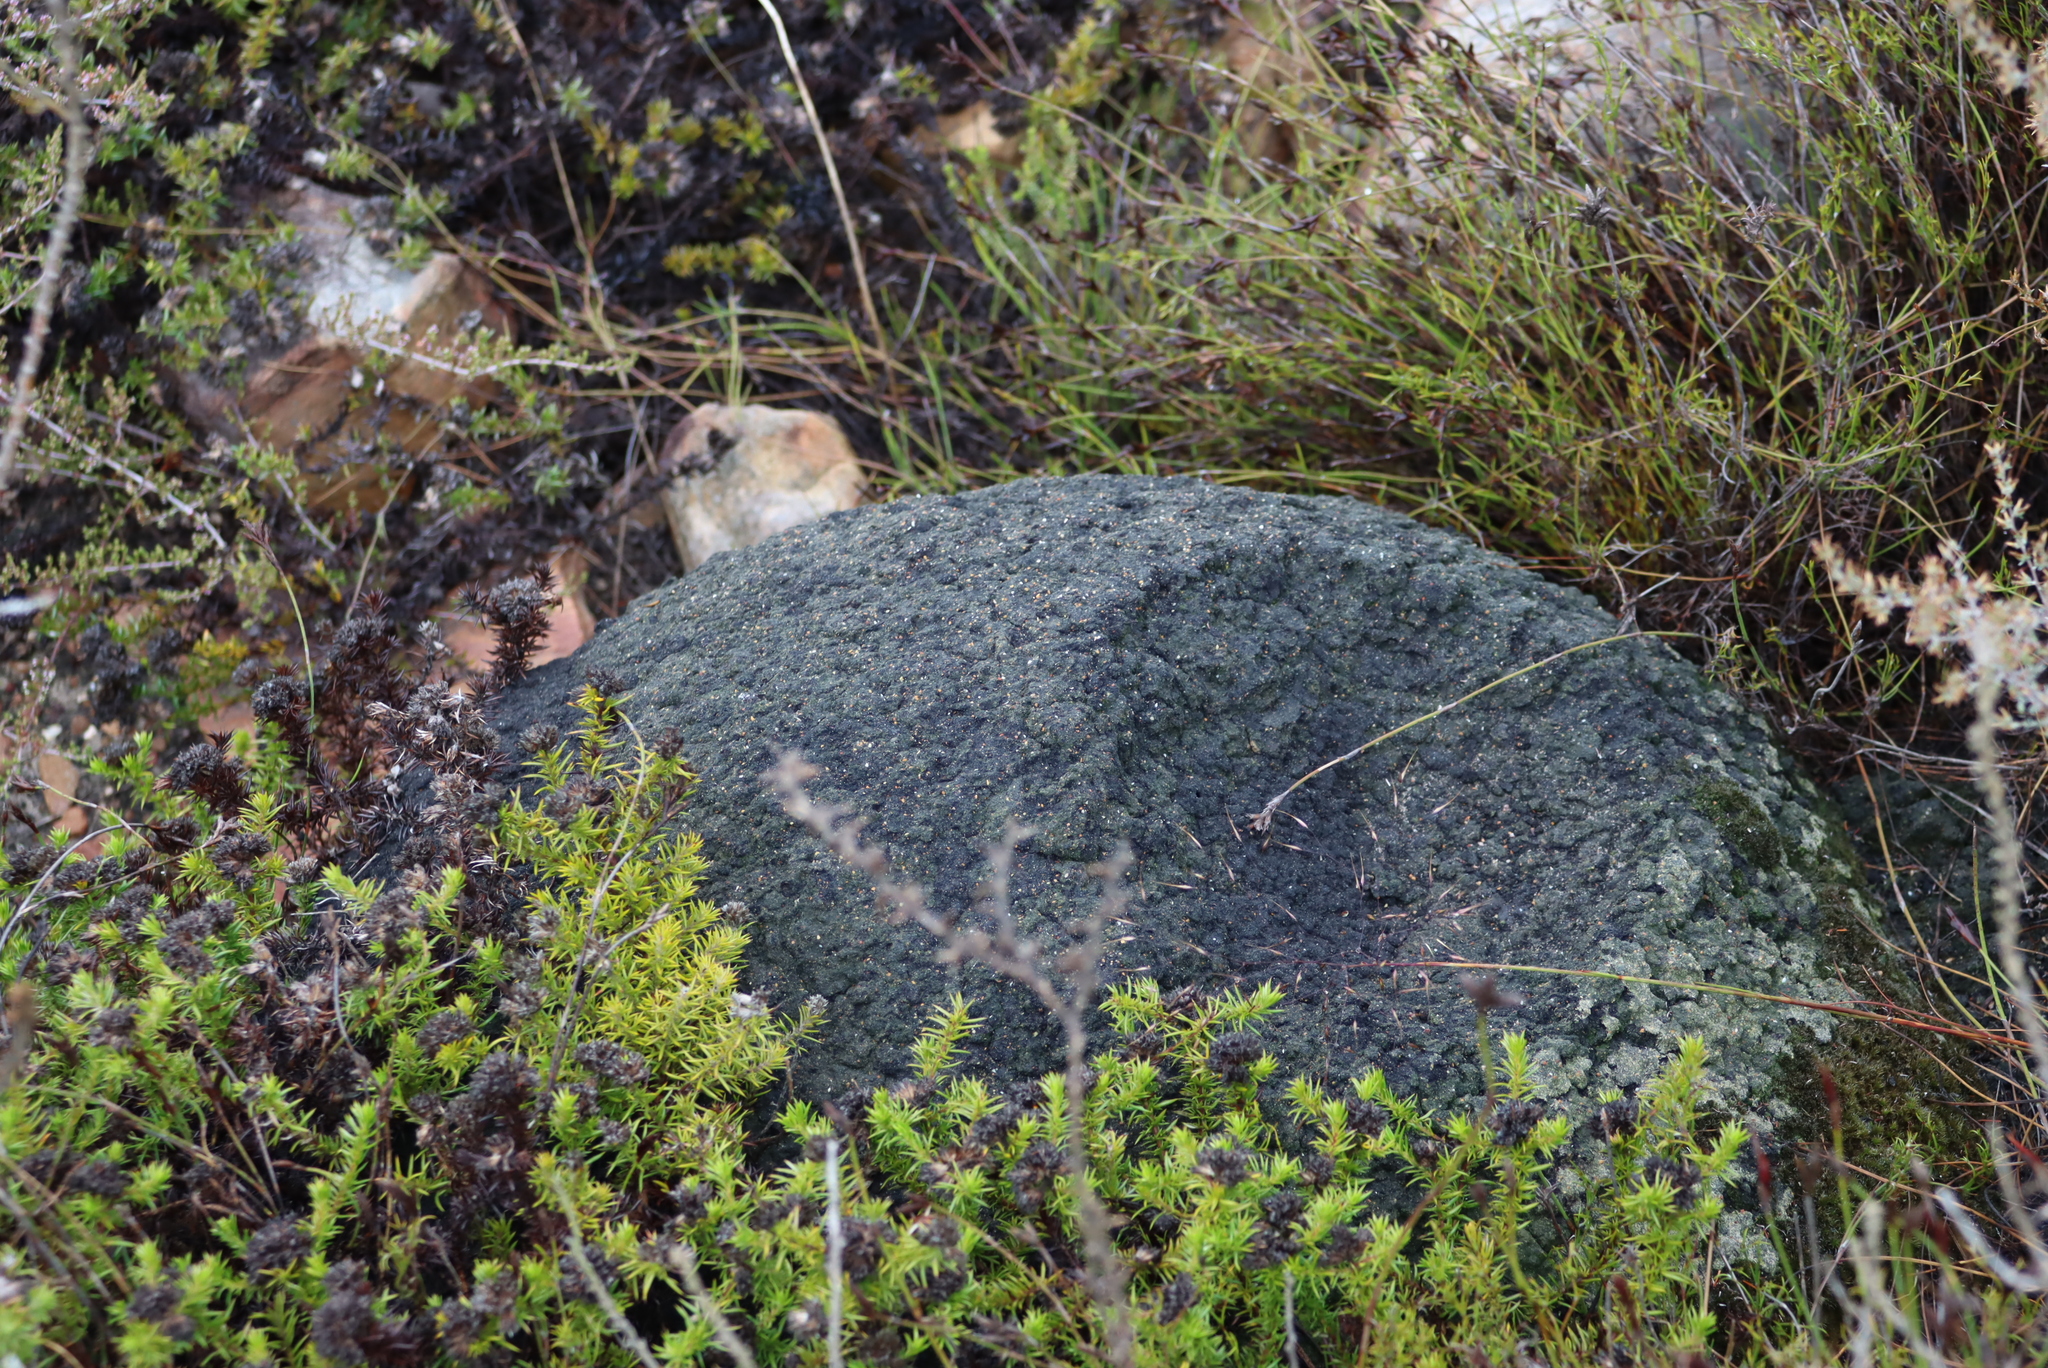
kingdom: Animalia
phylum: Arthropoda
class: Insecta
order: Blattodea
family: Termitidae
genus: Amitermes
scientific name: Amitermes hastatus
